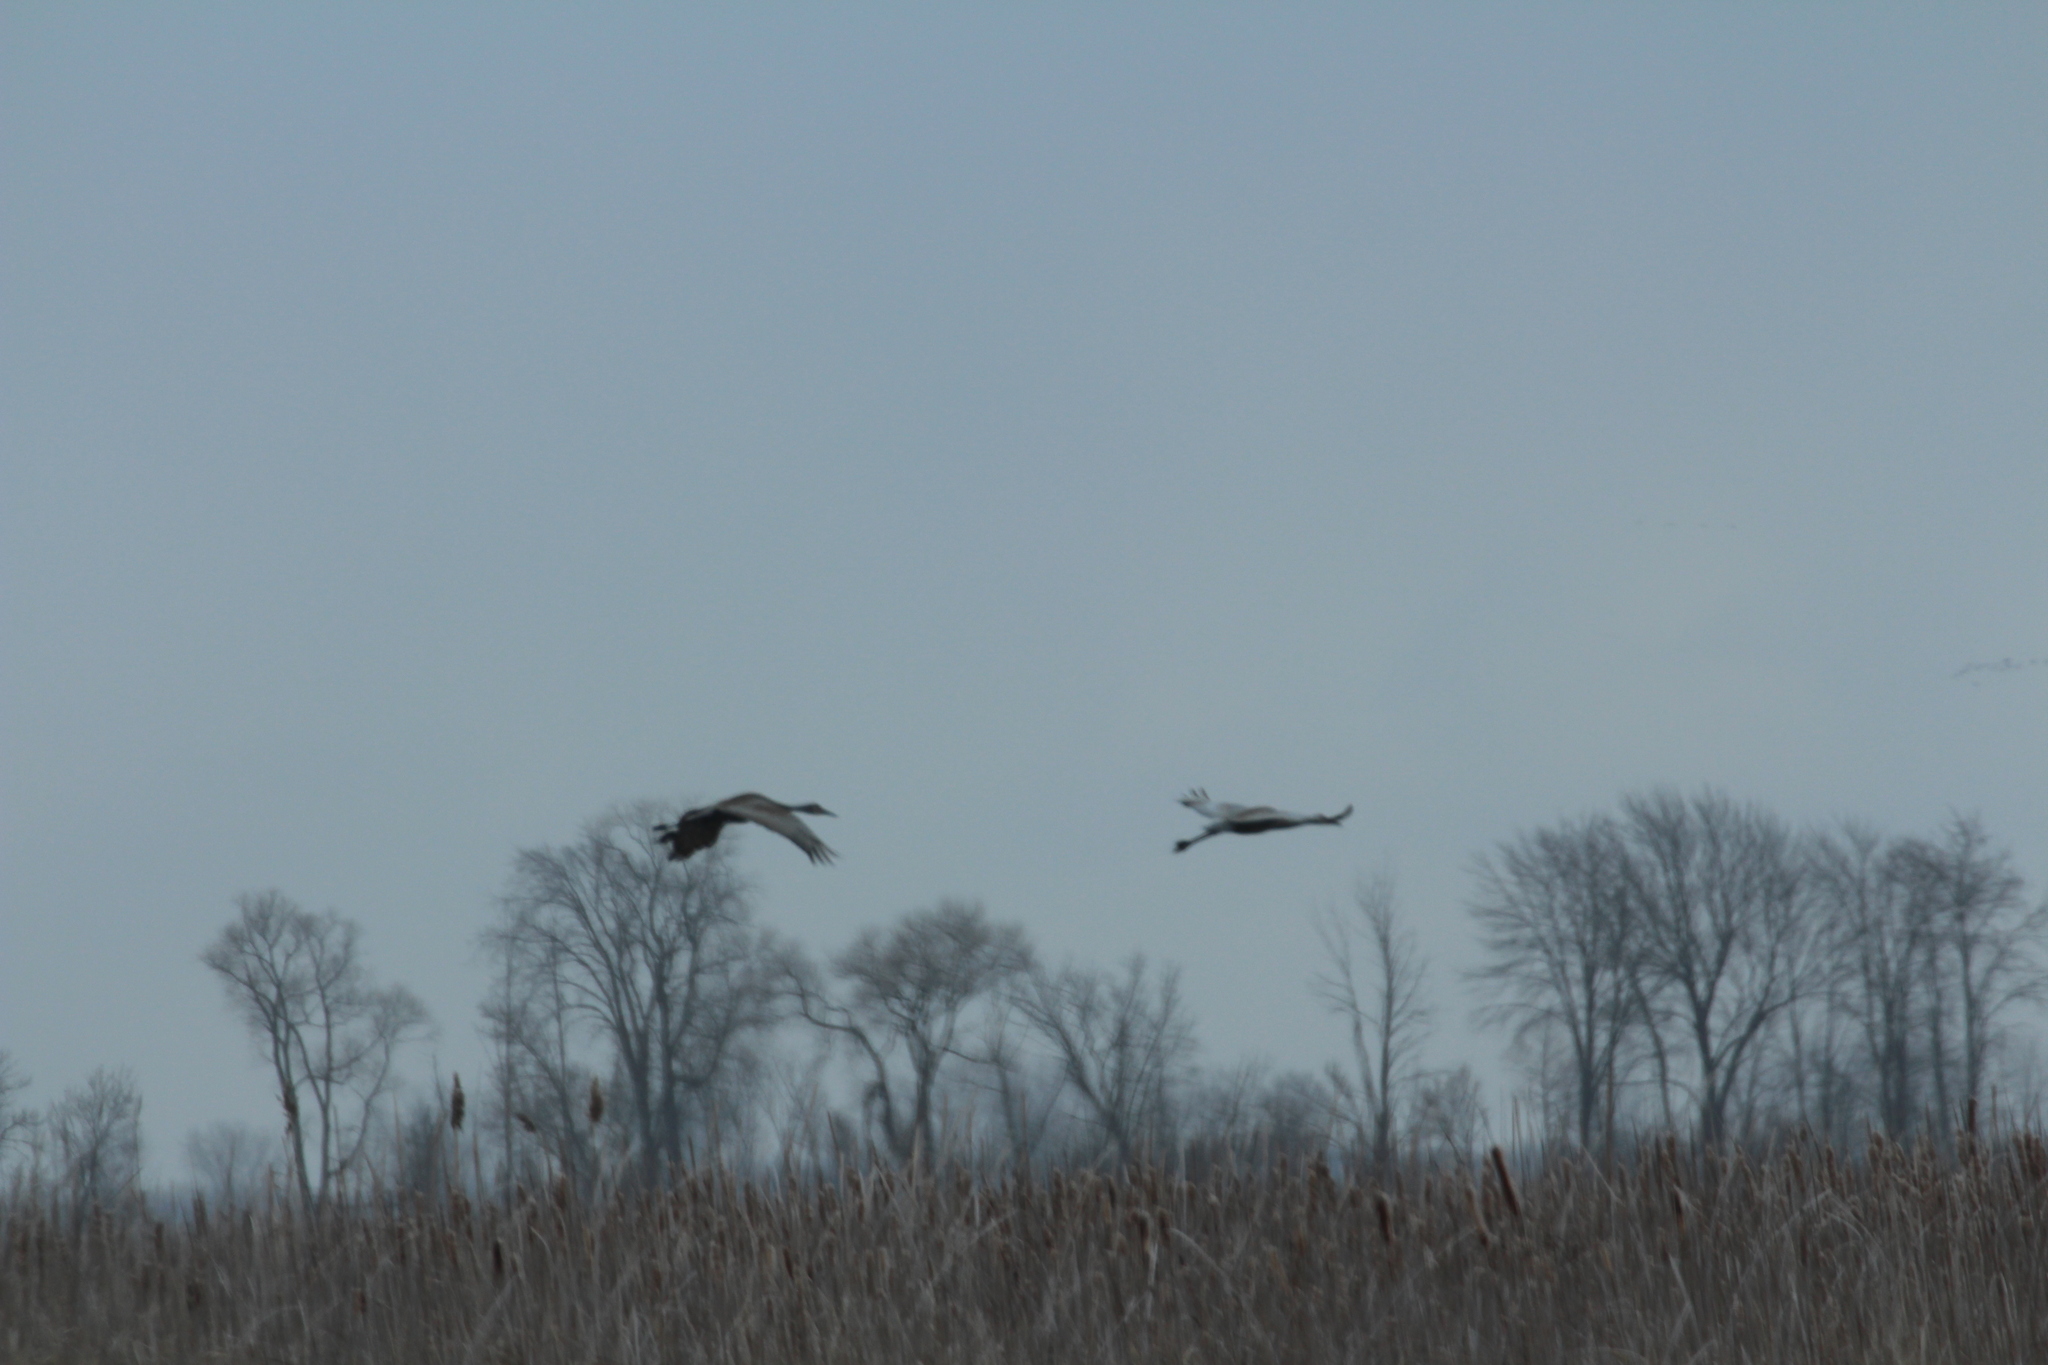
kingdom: Animalia
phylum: Chordata
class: Aves
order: Gruiformes
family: Gruidae
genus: Grus
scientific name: Grus canadensis
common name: Sandhill crane
